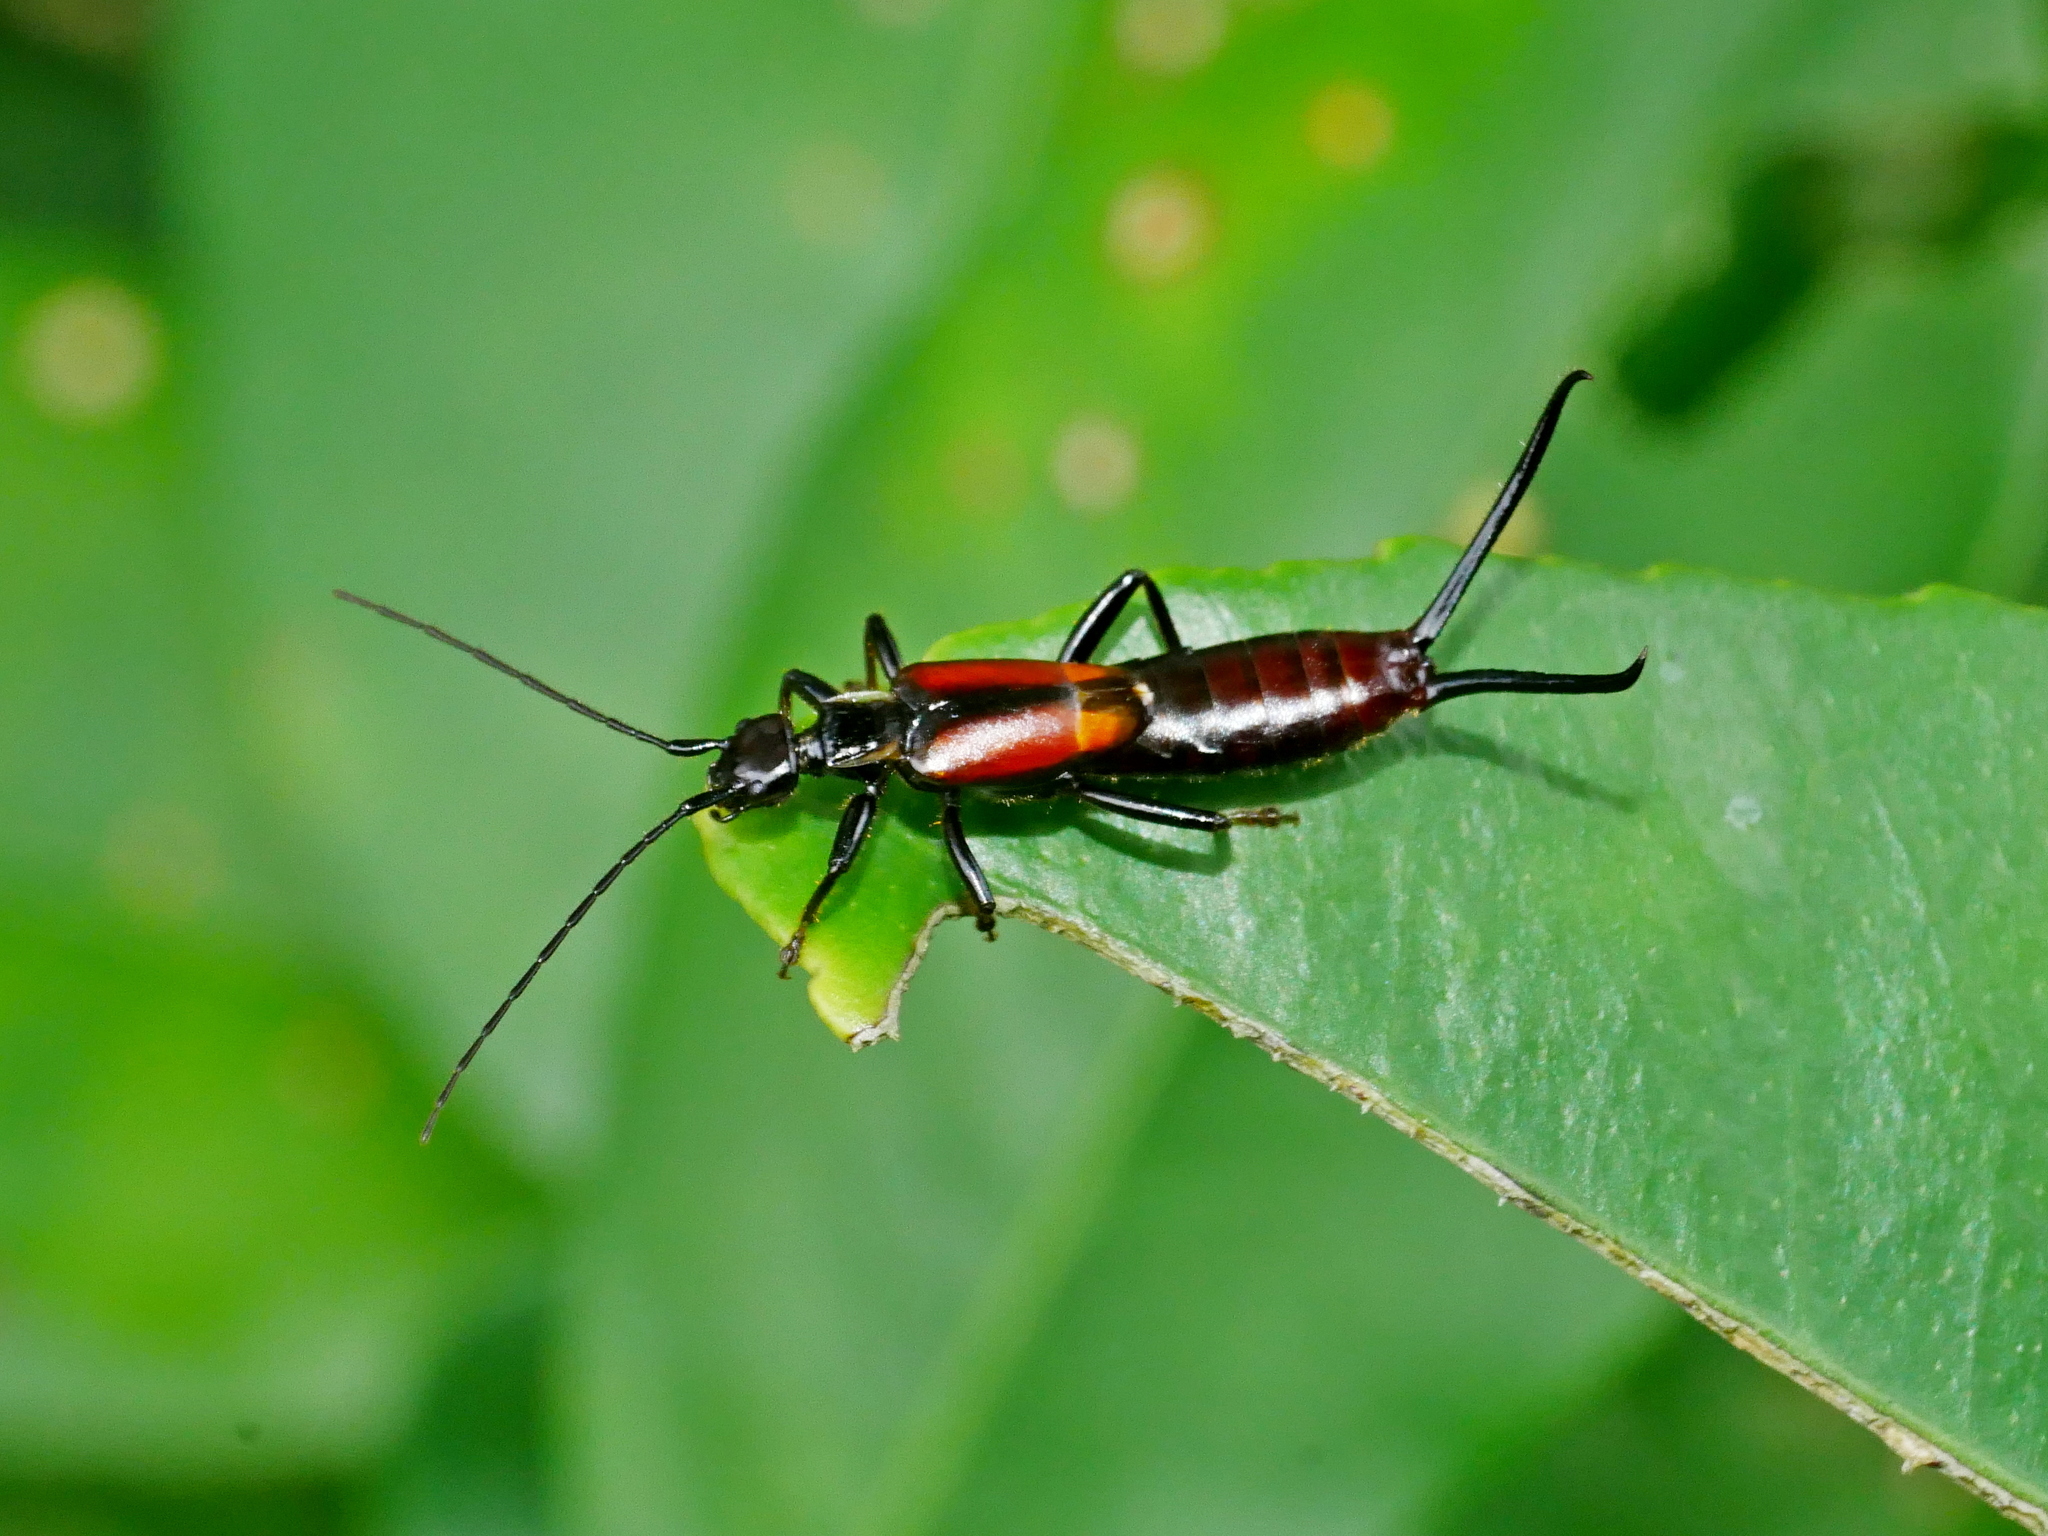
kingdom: Animalia
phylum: Arthropoda
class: Insecta
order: Dermaptera
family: Forficulidae
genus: Timomenus
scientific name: Timomenus komarovi
